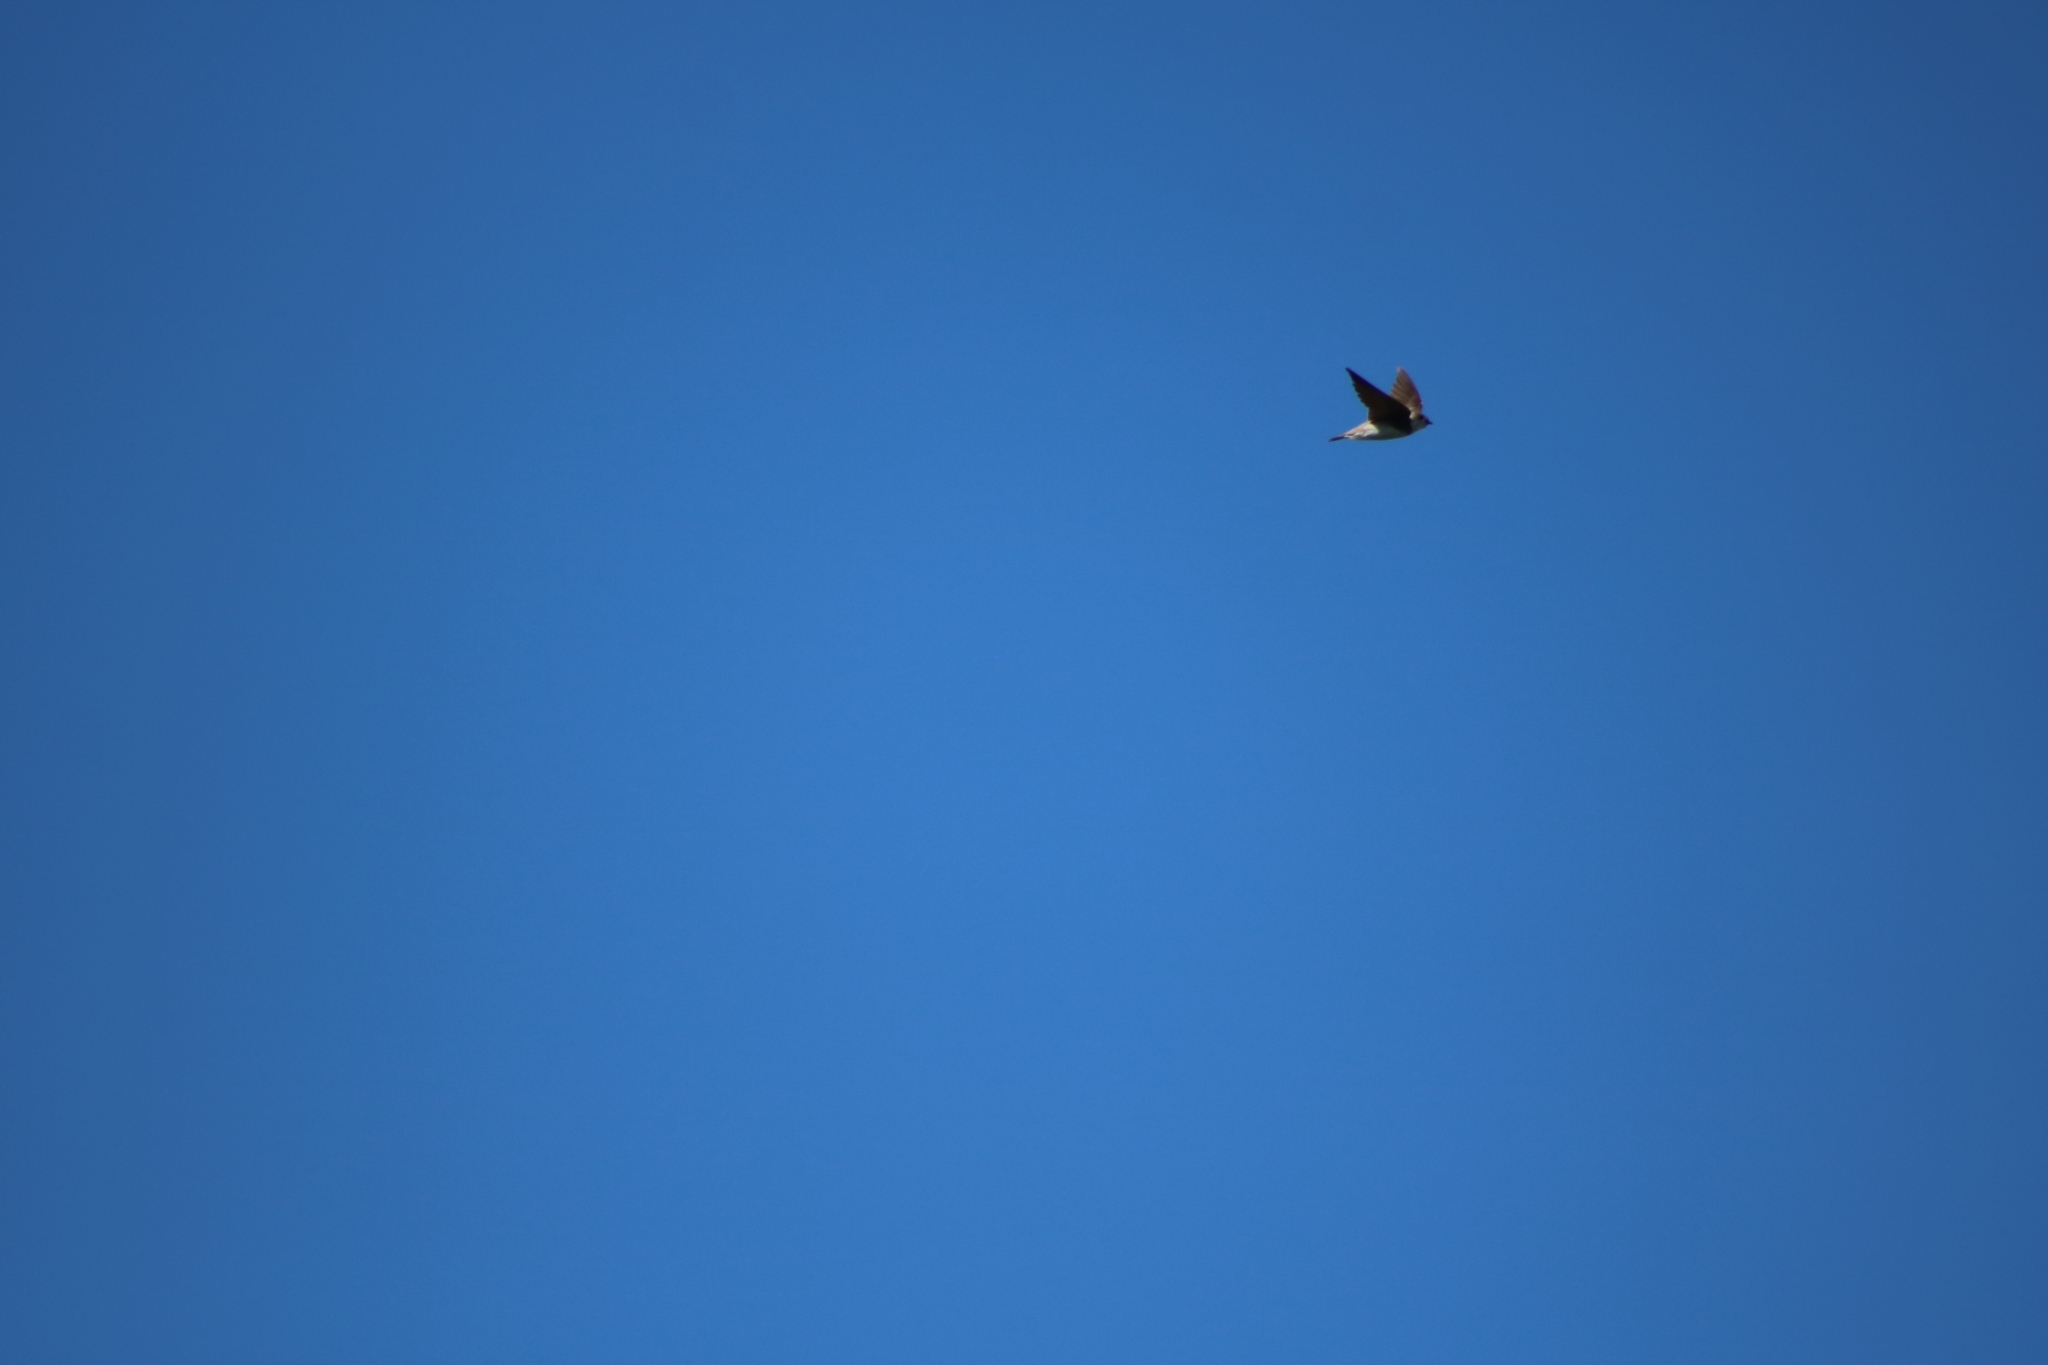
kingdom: Animalia
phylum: Chordata
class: Aves
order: Passeriformes
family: Hirundinidae
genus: Riparia
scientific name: Riparia riparia
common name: Sand martin
